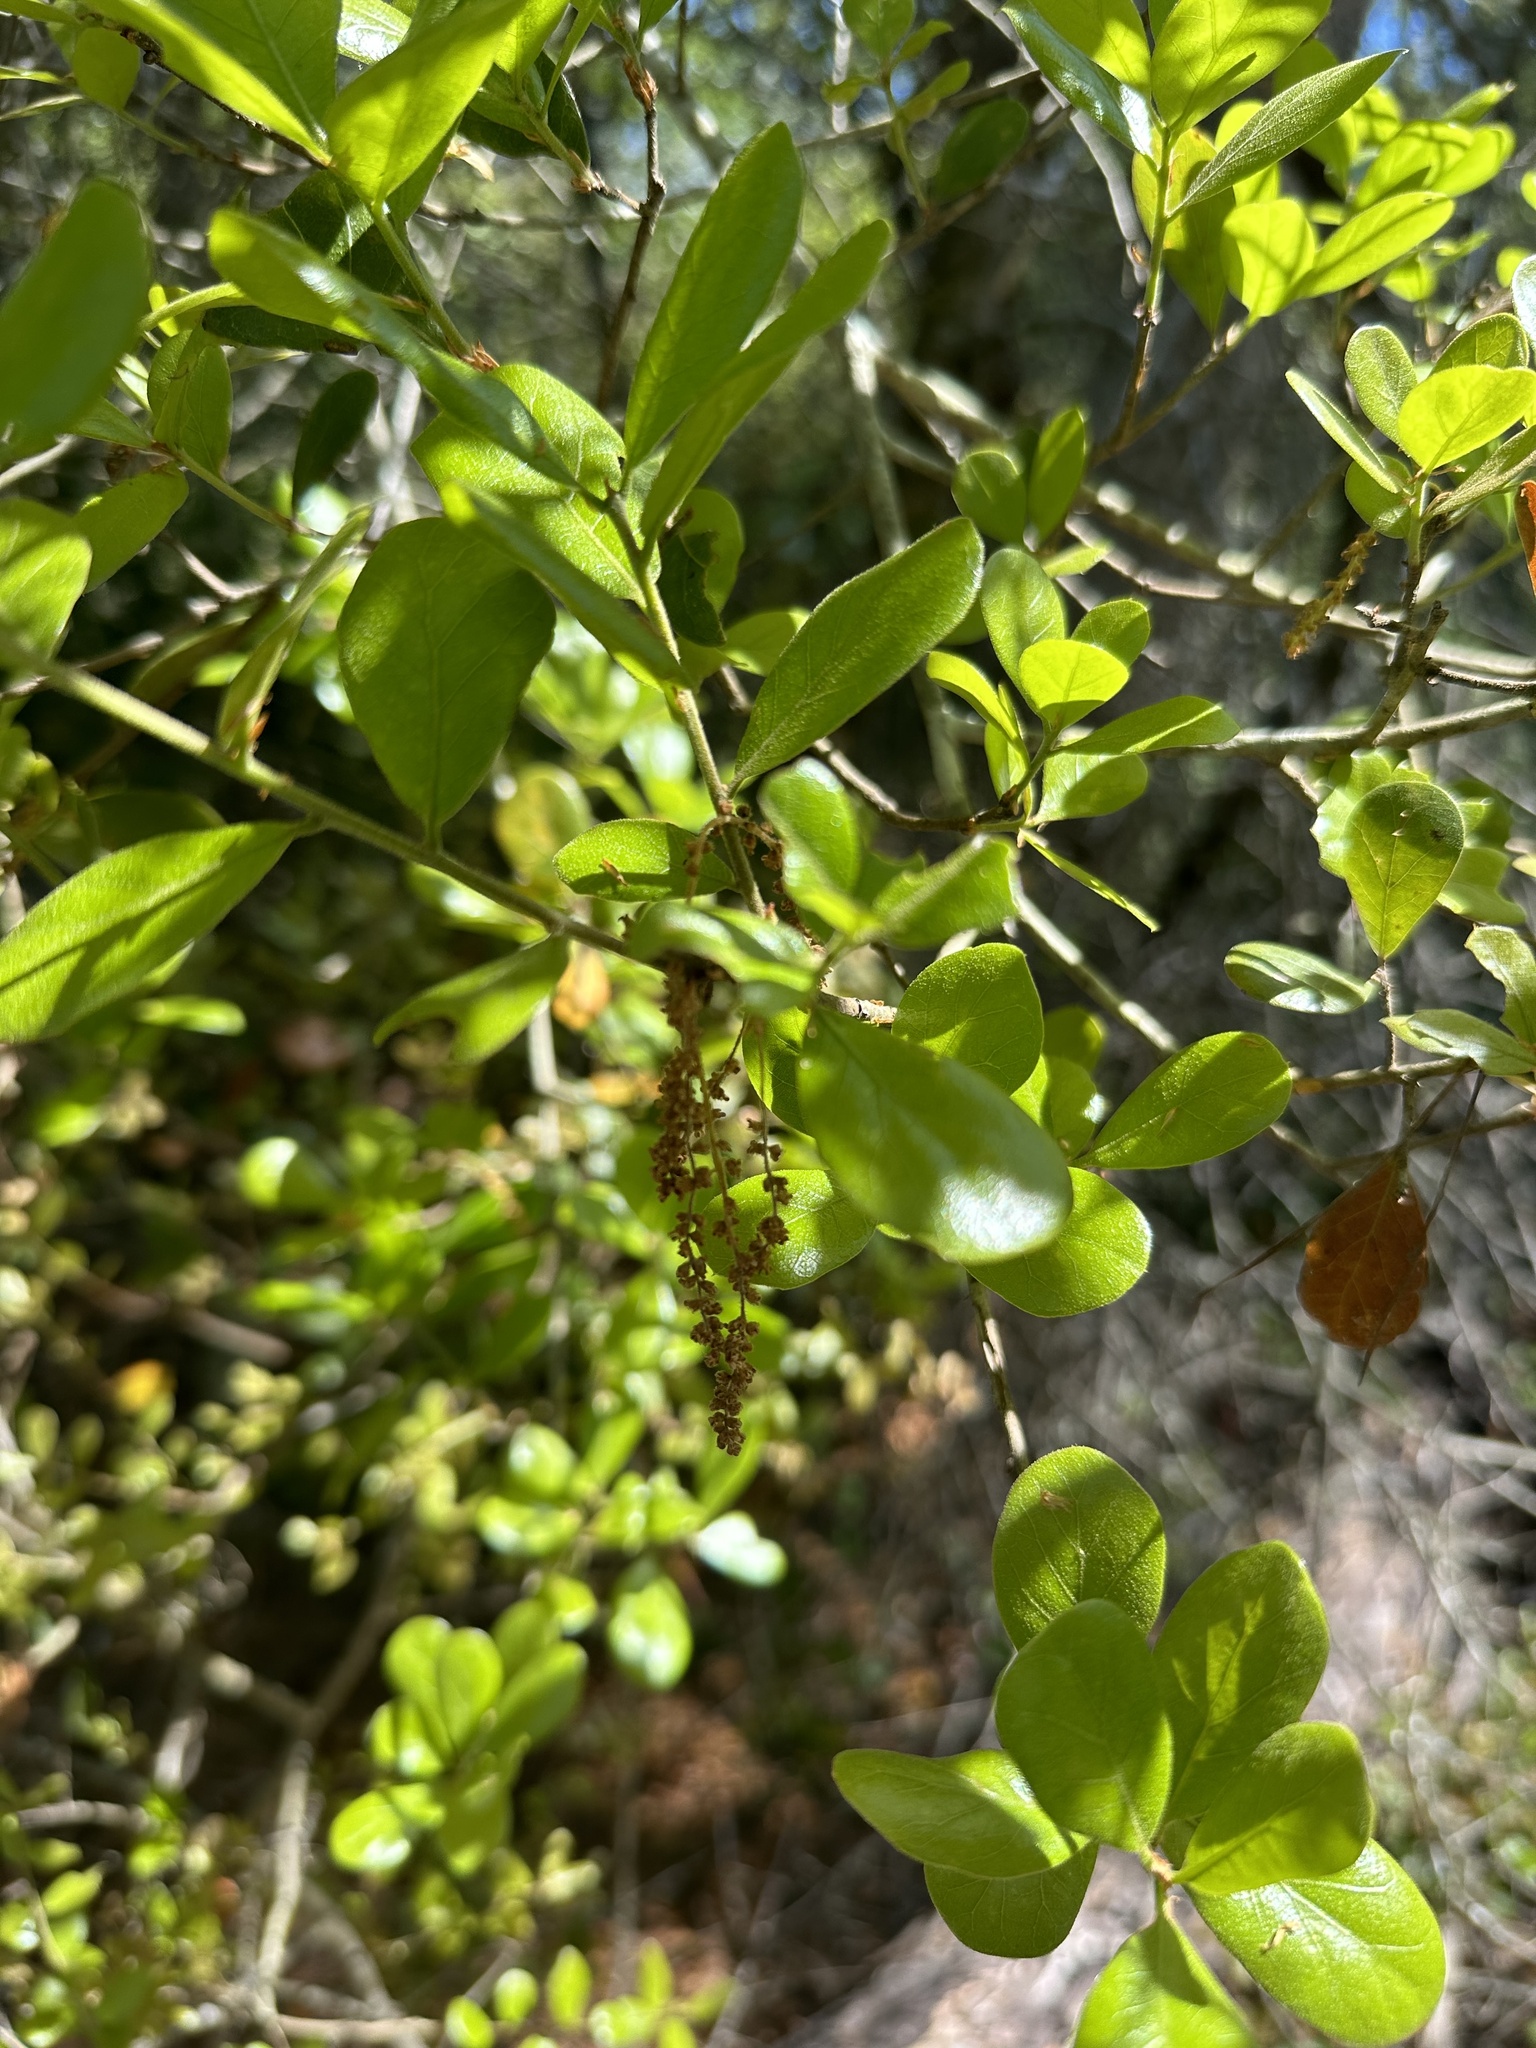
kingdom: Plantae
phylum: Tracheophyta
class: Magnoliopsida
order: Fagales
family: Fagaceae
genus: Quercus
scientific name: Quercus myrtifolia
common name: Myrtle oak
